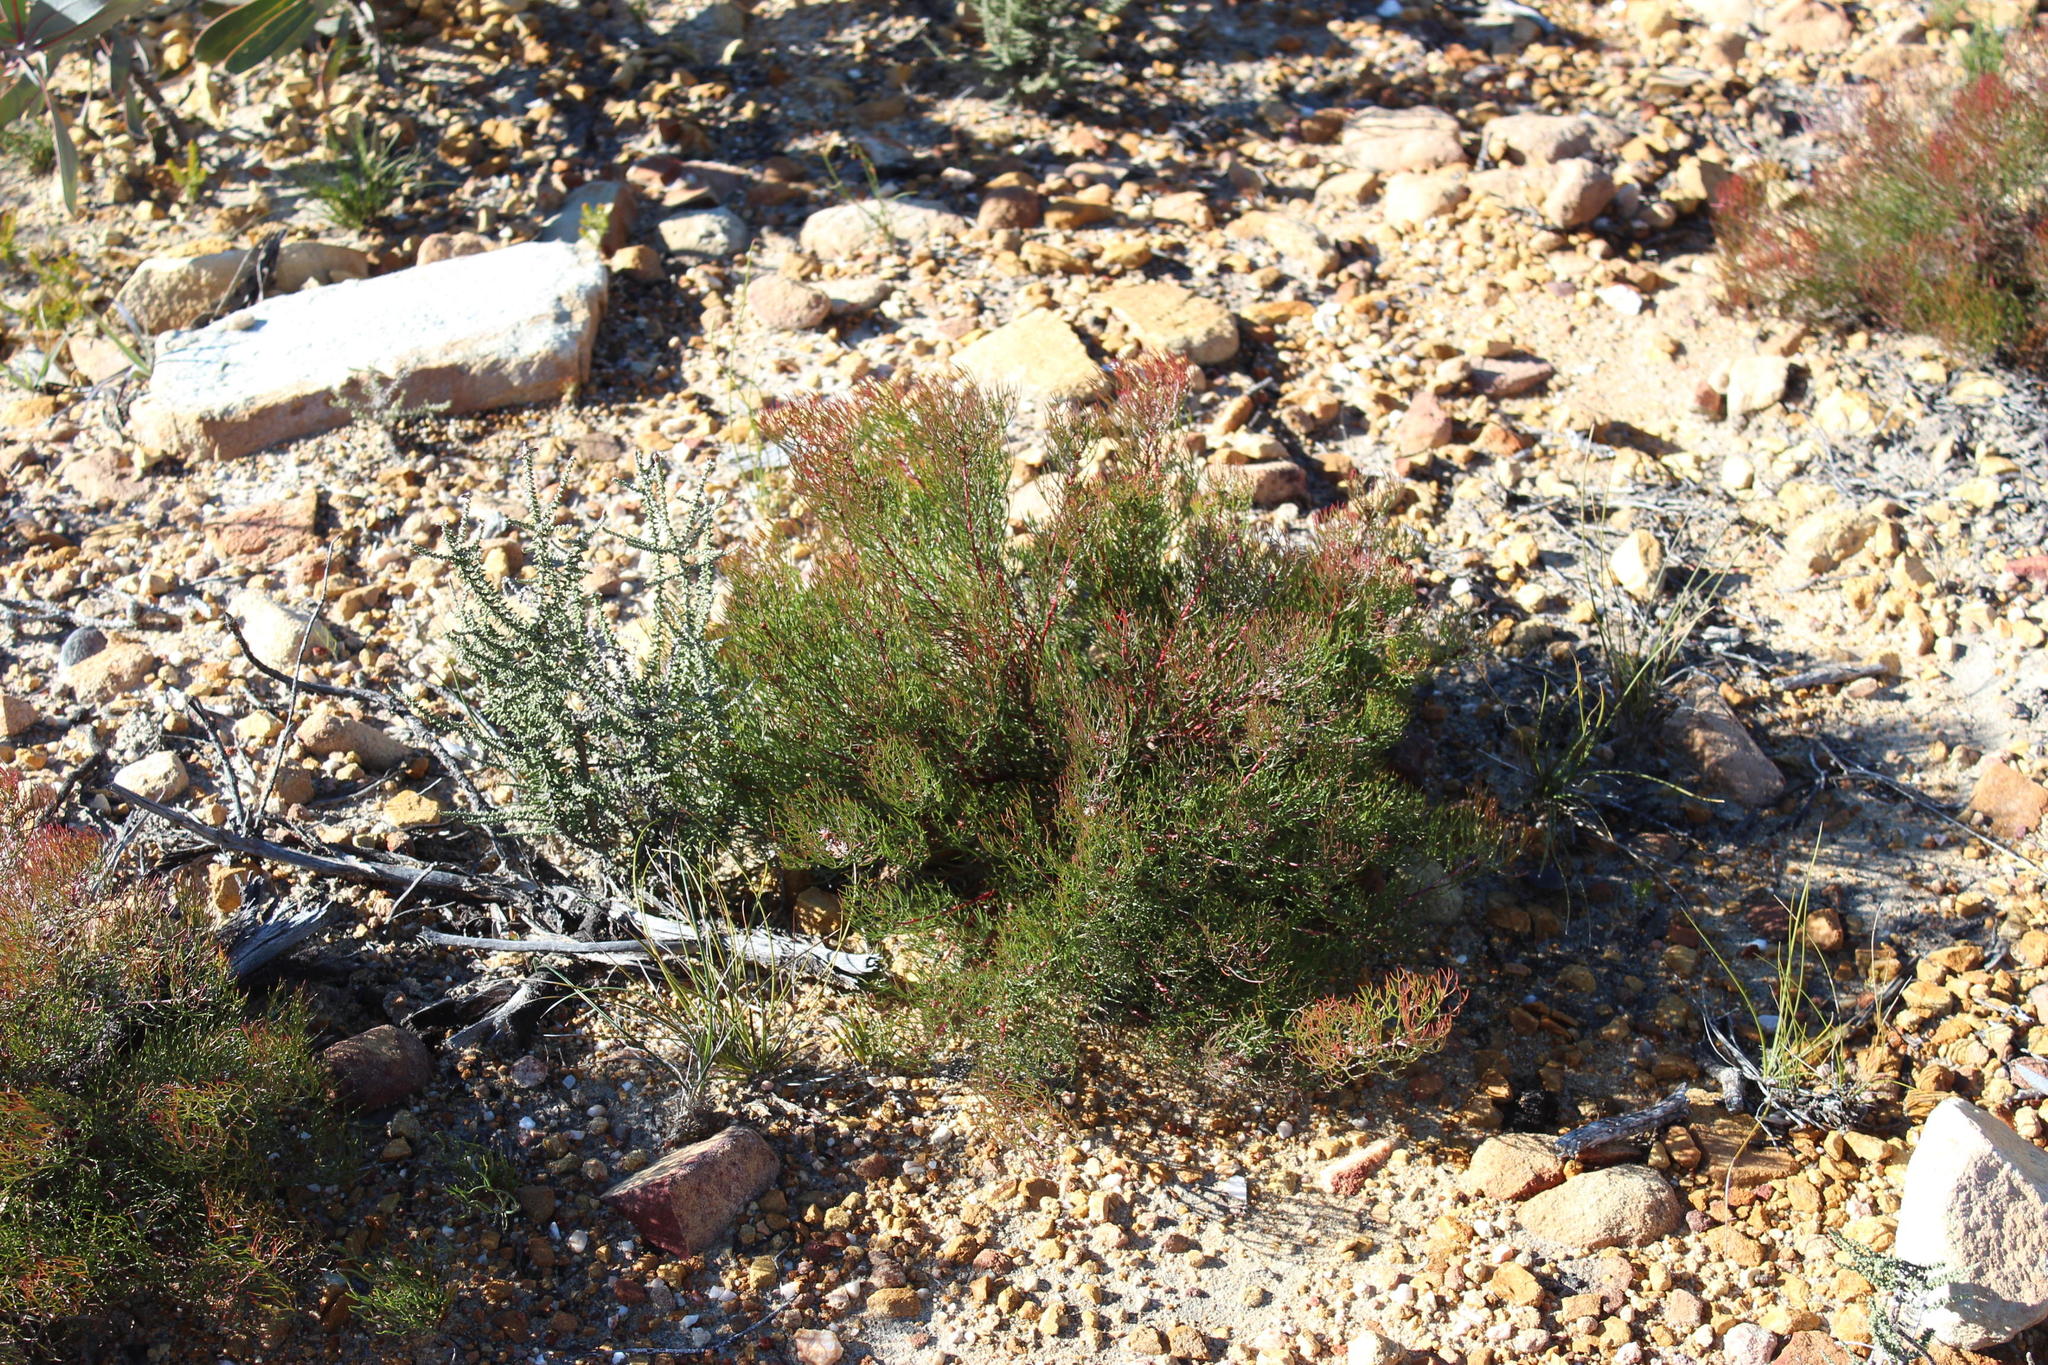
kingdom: Plantae
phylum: Tracheophyta
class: Magnoliopsida
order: Proteales
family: Proteaceae
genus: Serruria
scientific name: Serruria fasciflora
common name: Common pin spiderhead
